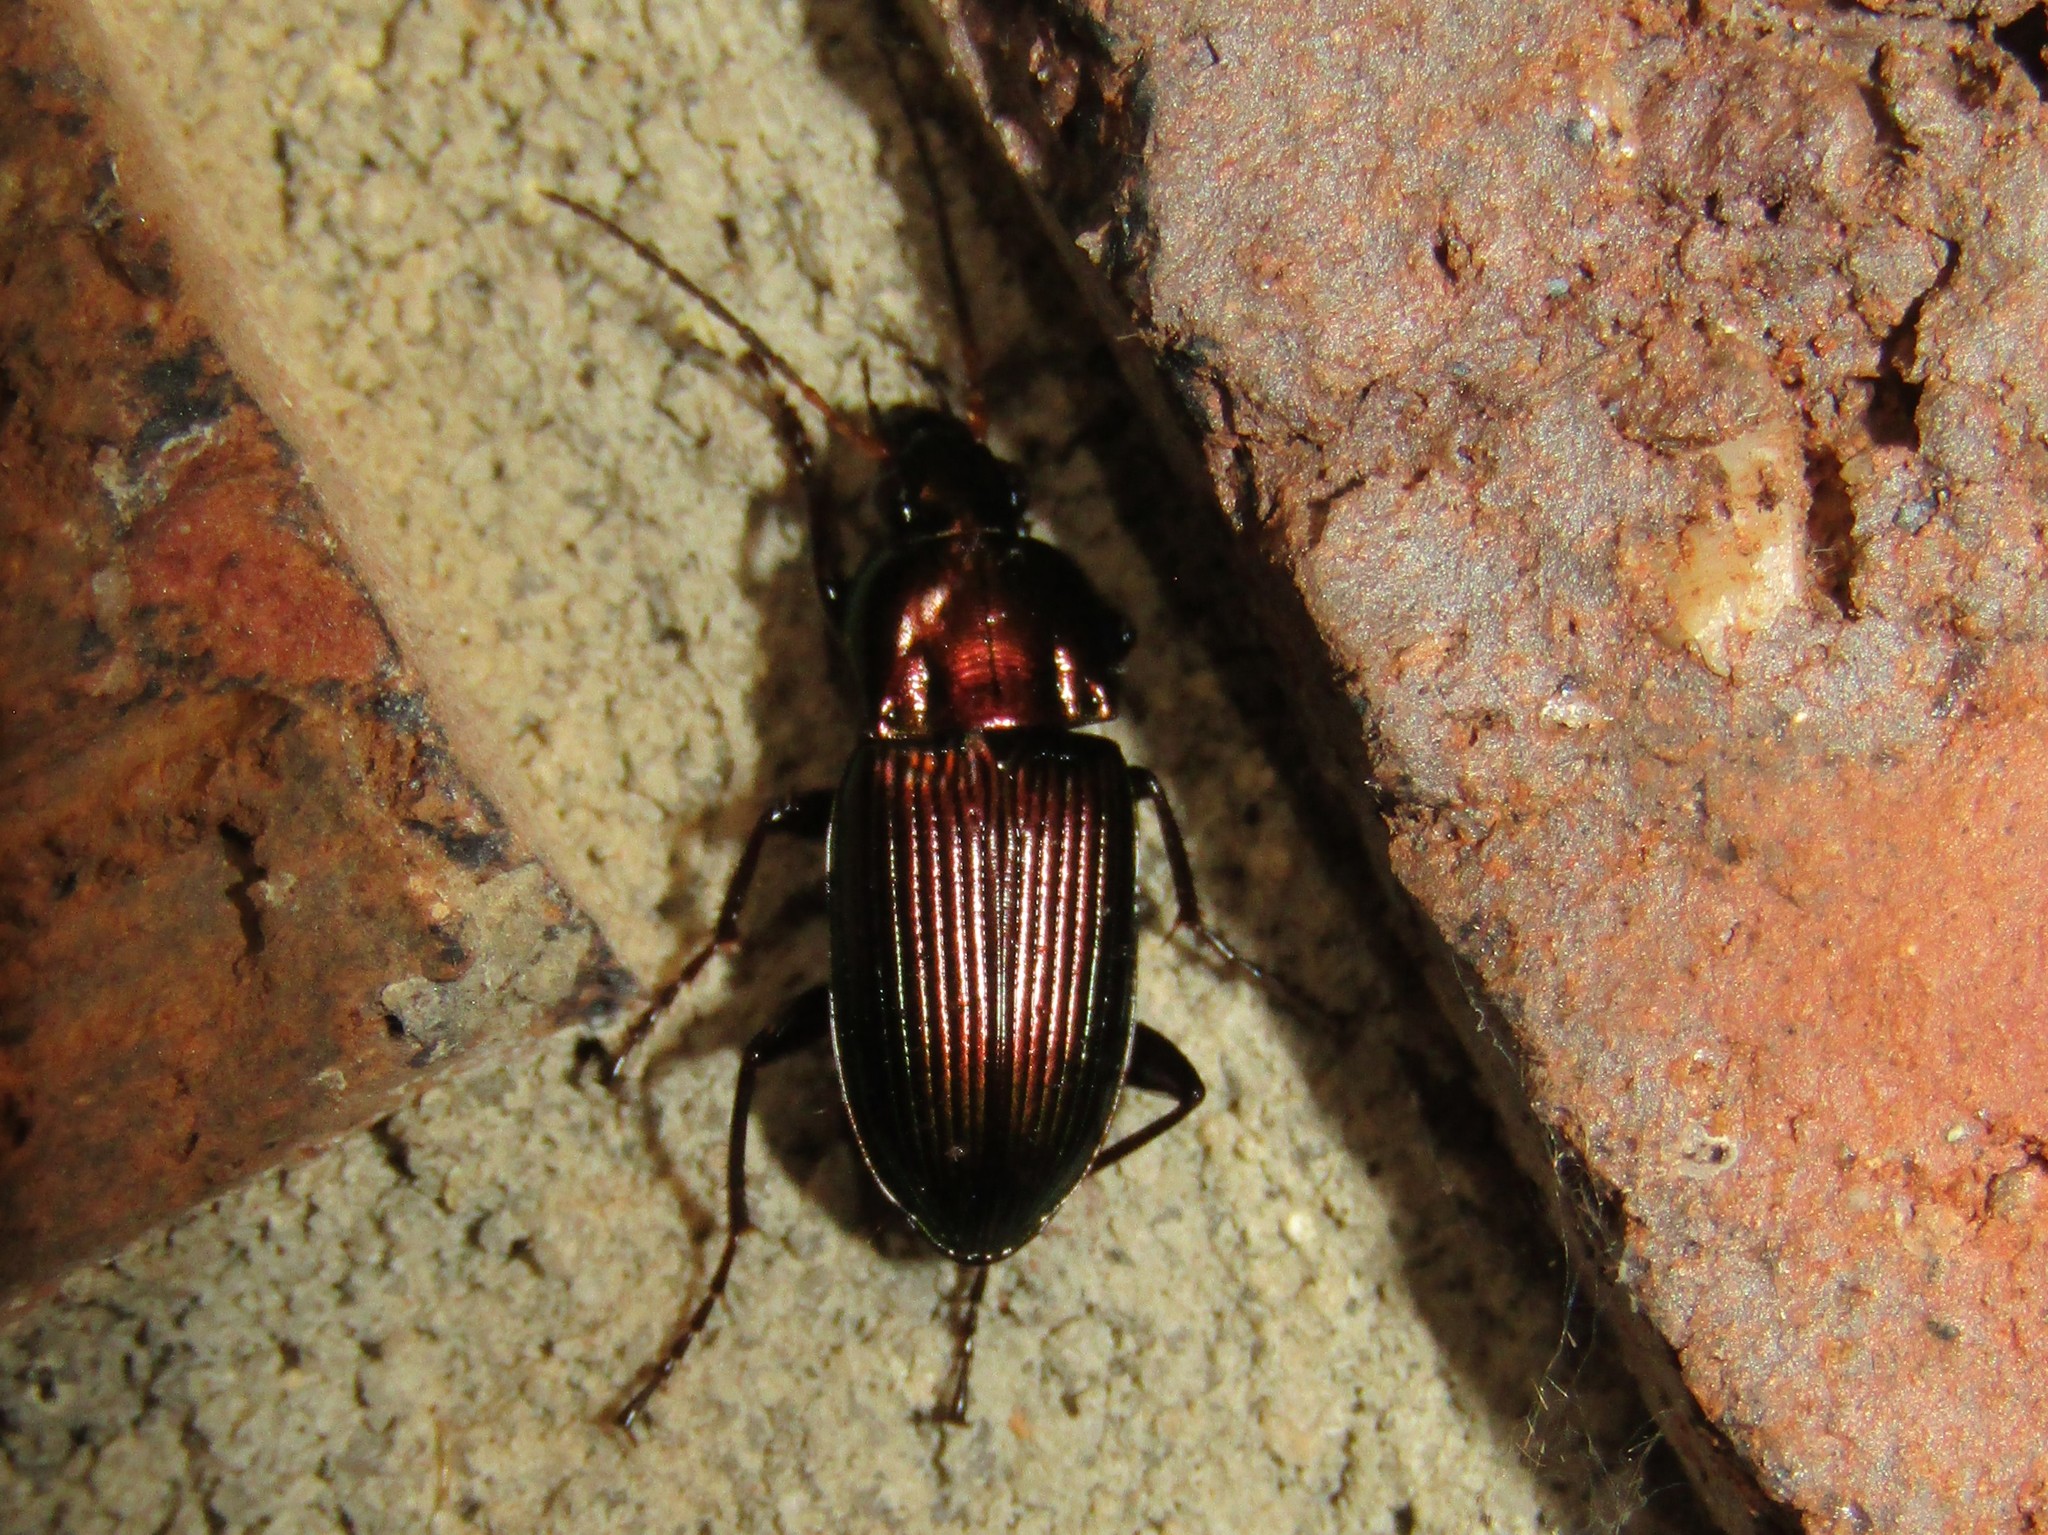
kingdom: Animalia
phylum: Arthropoda
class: Insecta
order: Coleoptera
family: Carabidae
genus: Poecilus
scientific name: Poecilus chalcites
